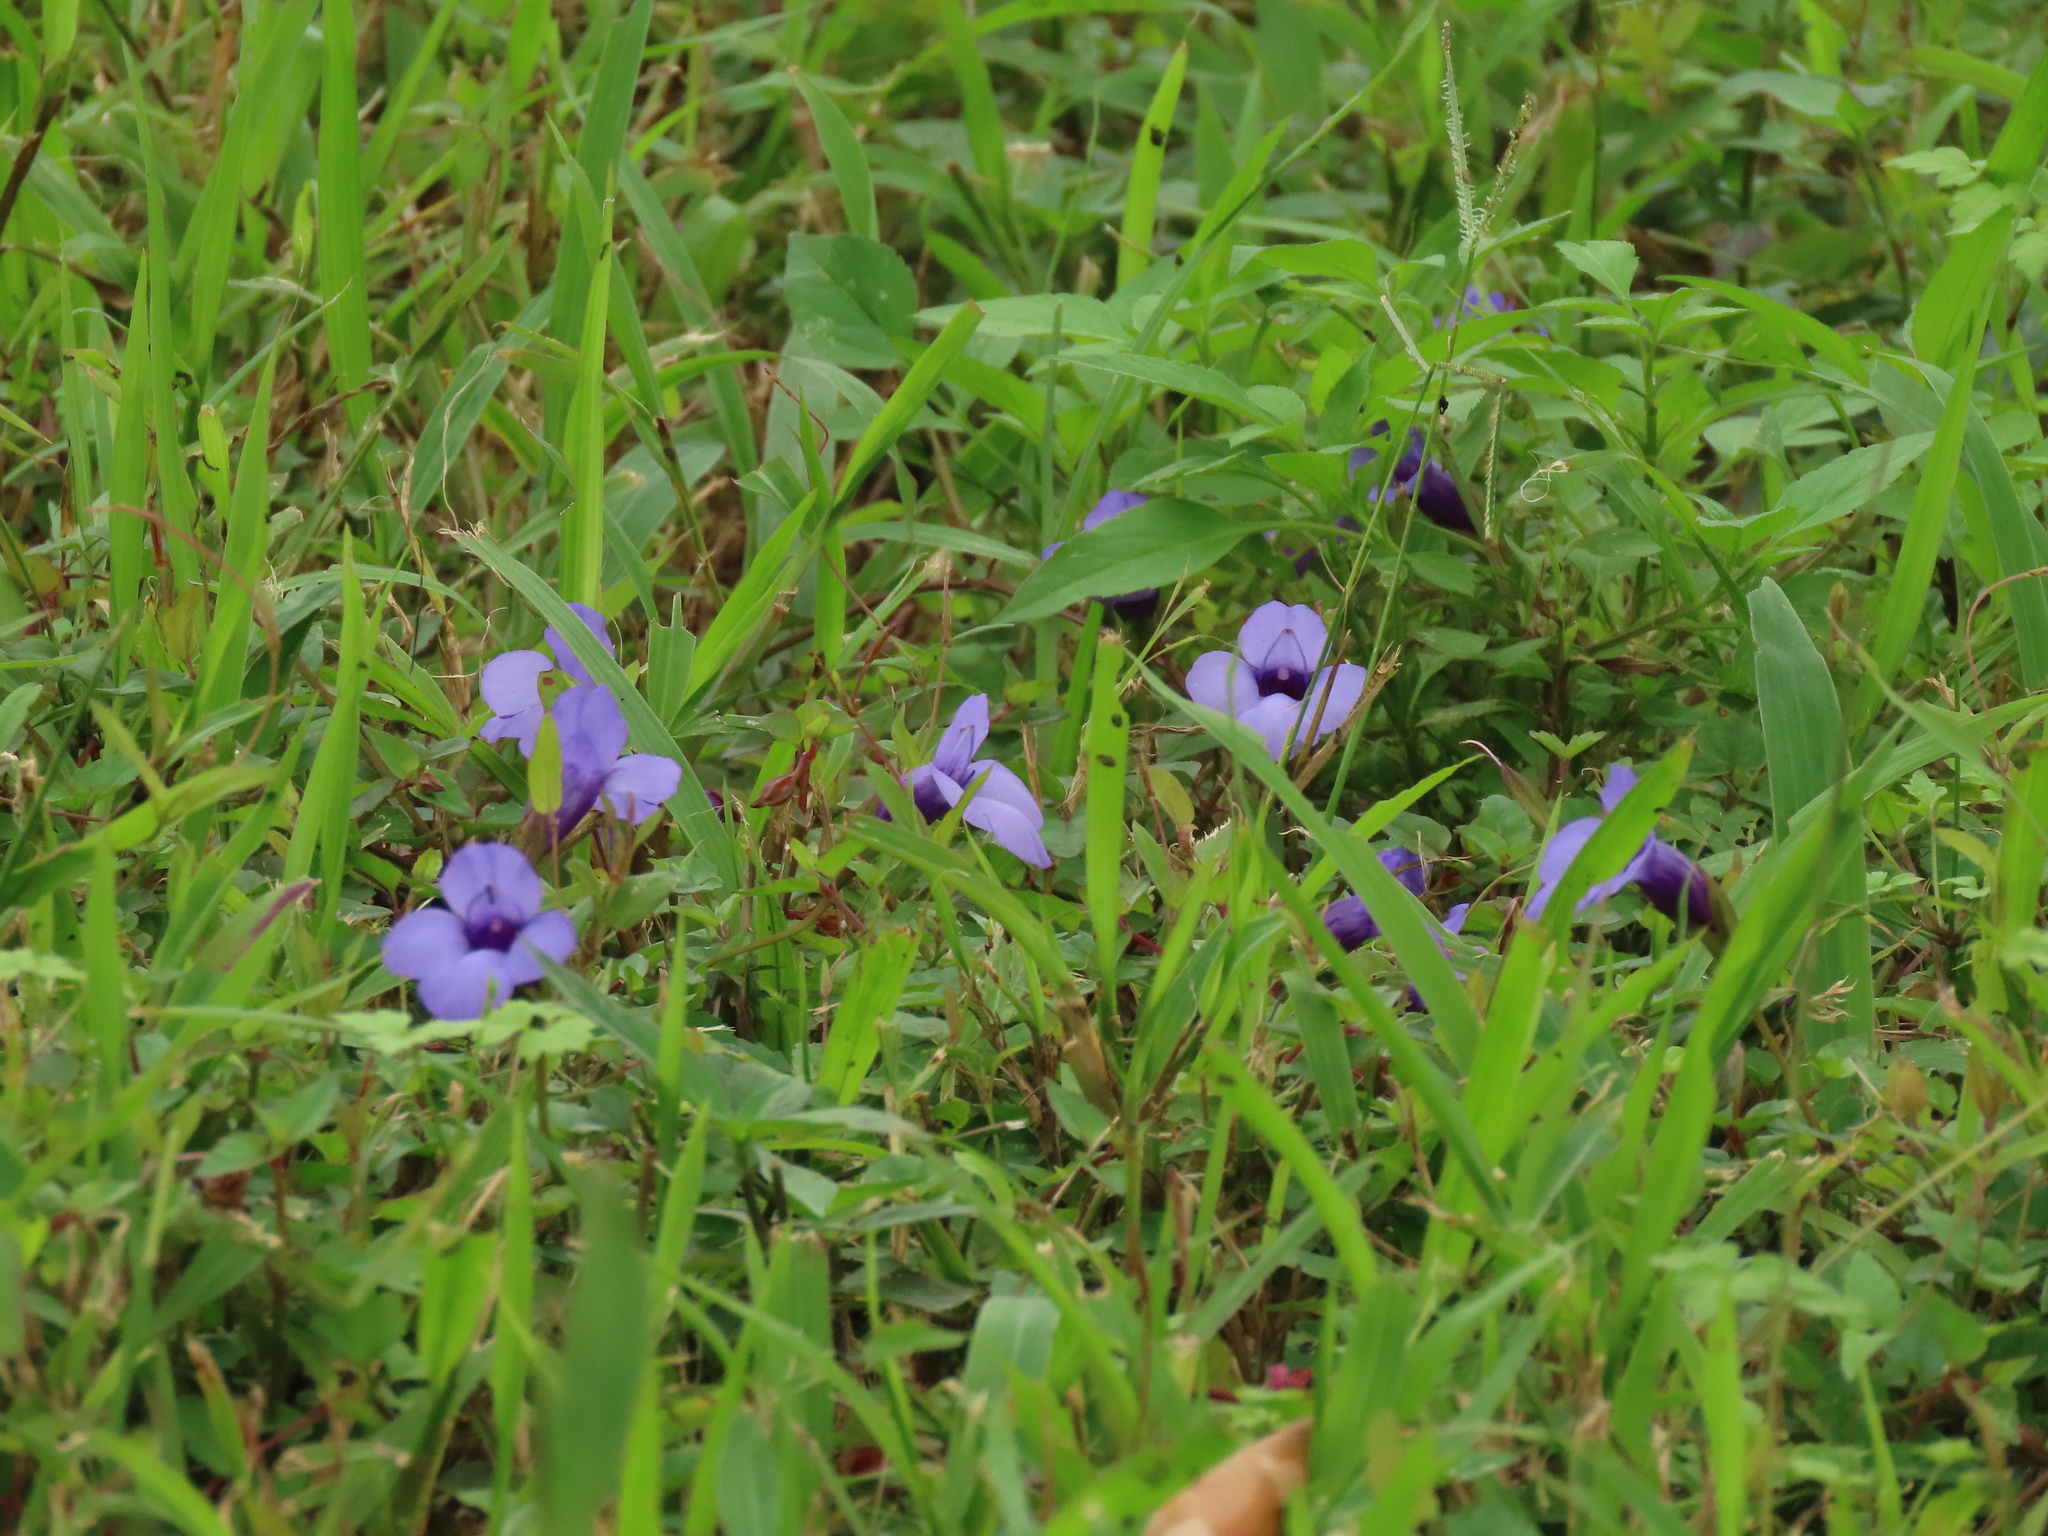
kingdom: Plantae
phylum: Tracheophyta
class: Magnoliopsida
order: Lamiales
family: Linderniaceae
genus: Torenia
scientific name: Torenia concolor
